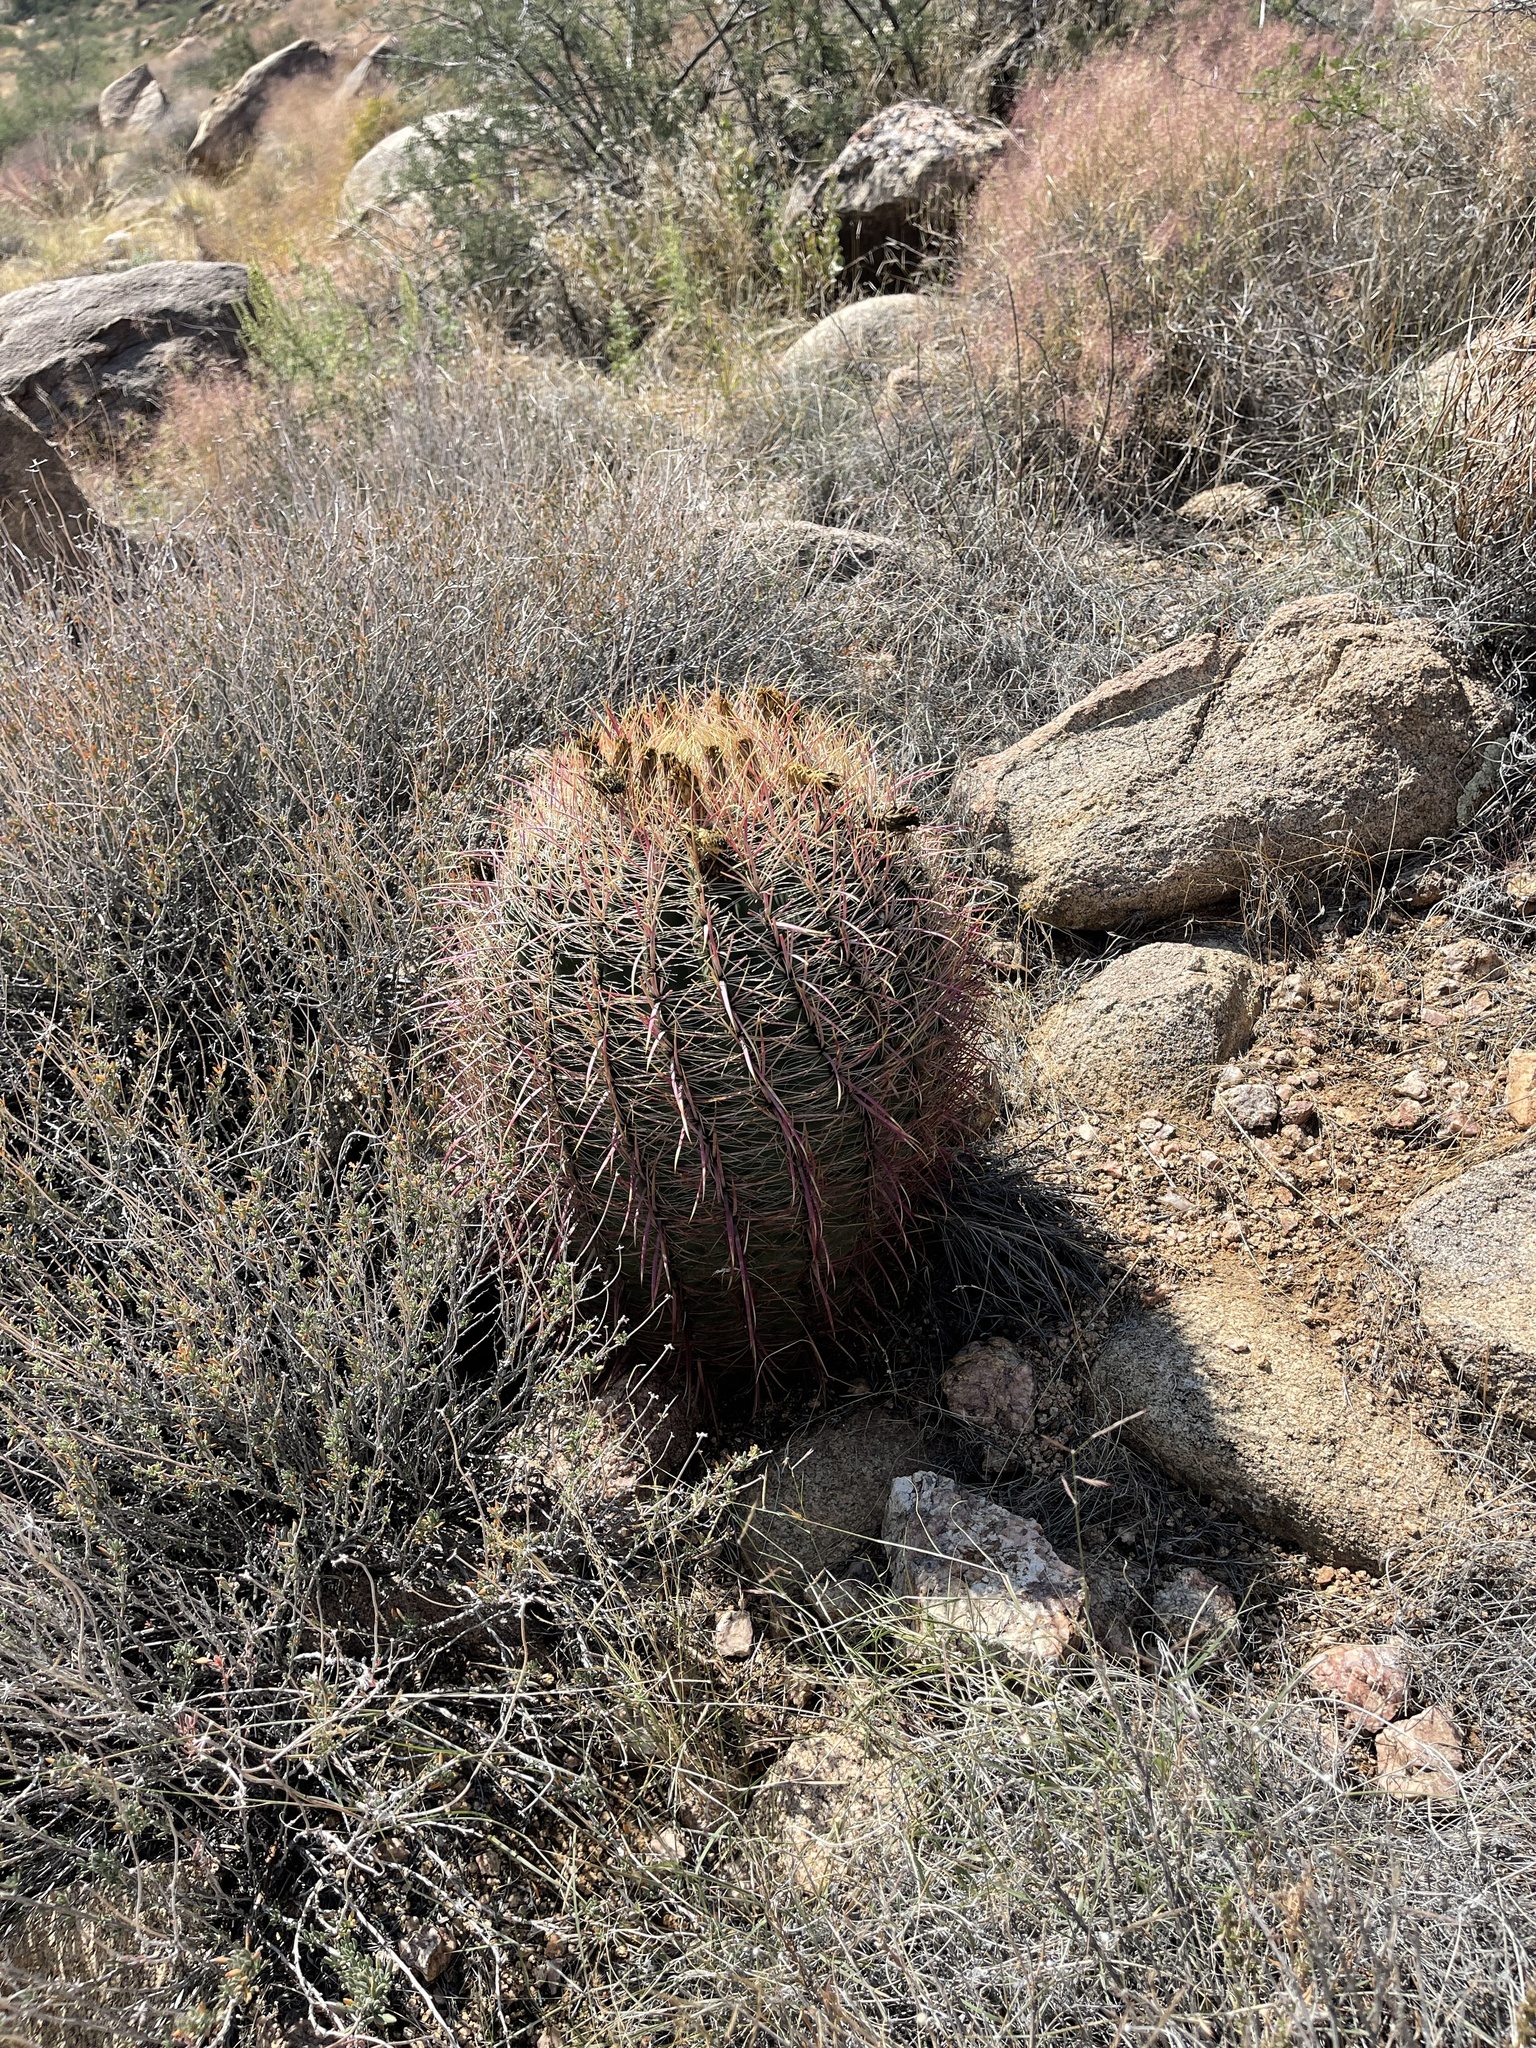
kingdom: Plantae
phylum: Tracheophyta
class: Magnoliopsida
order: Caryophyllales
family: Cactaceae
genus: Ferocactus
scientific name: Ferocactus cylindraceus
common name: California barrel cactus
